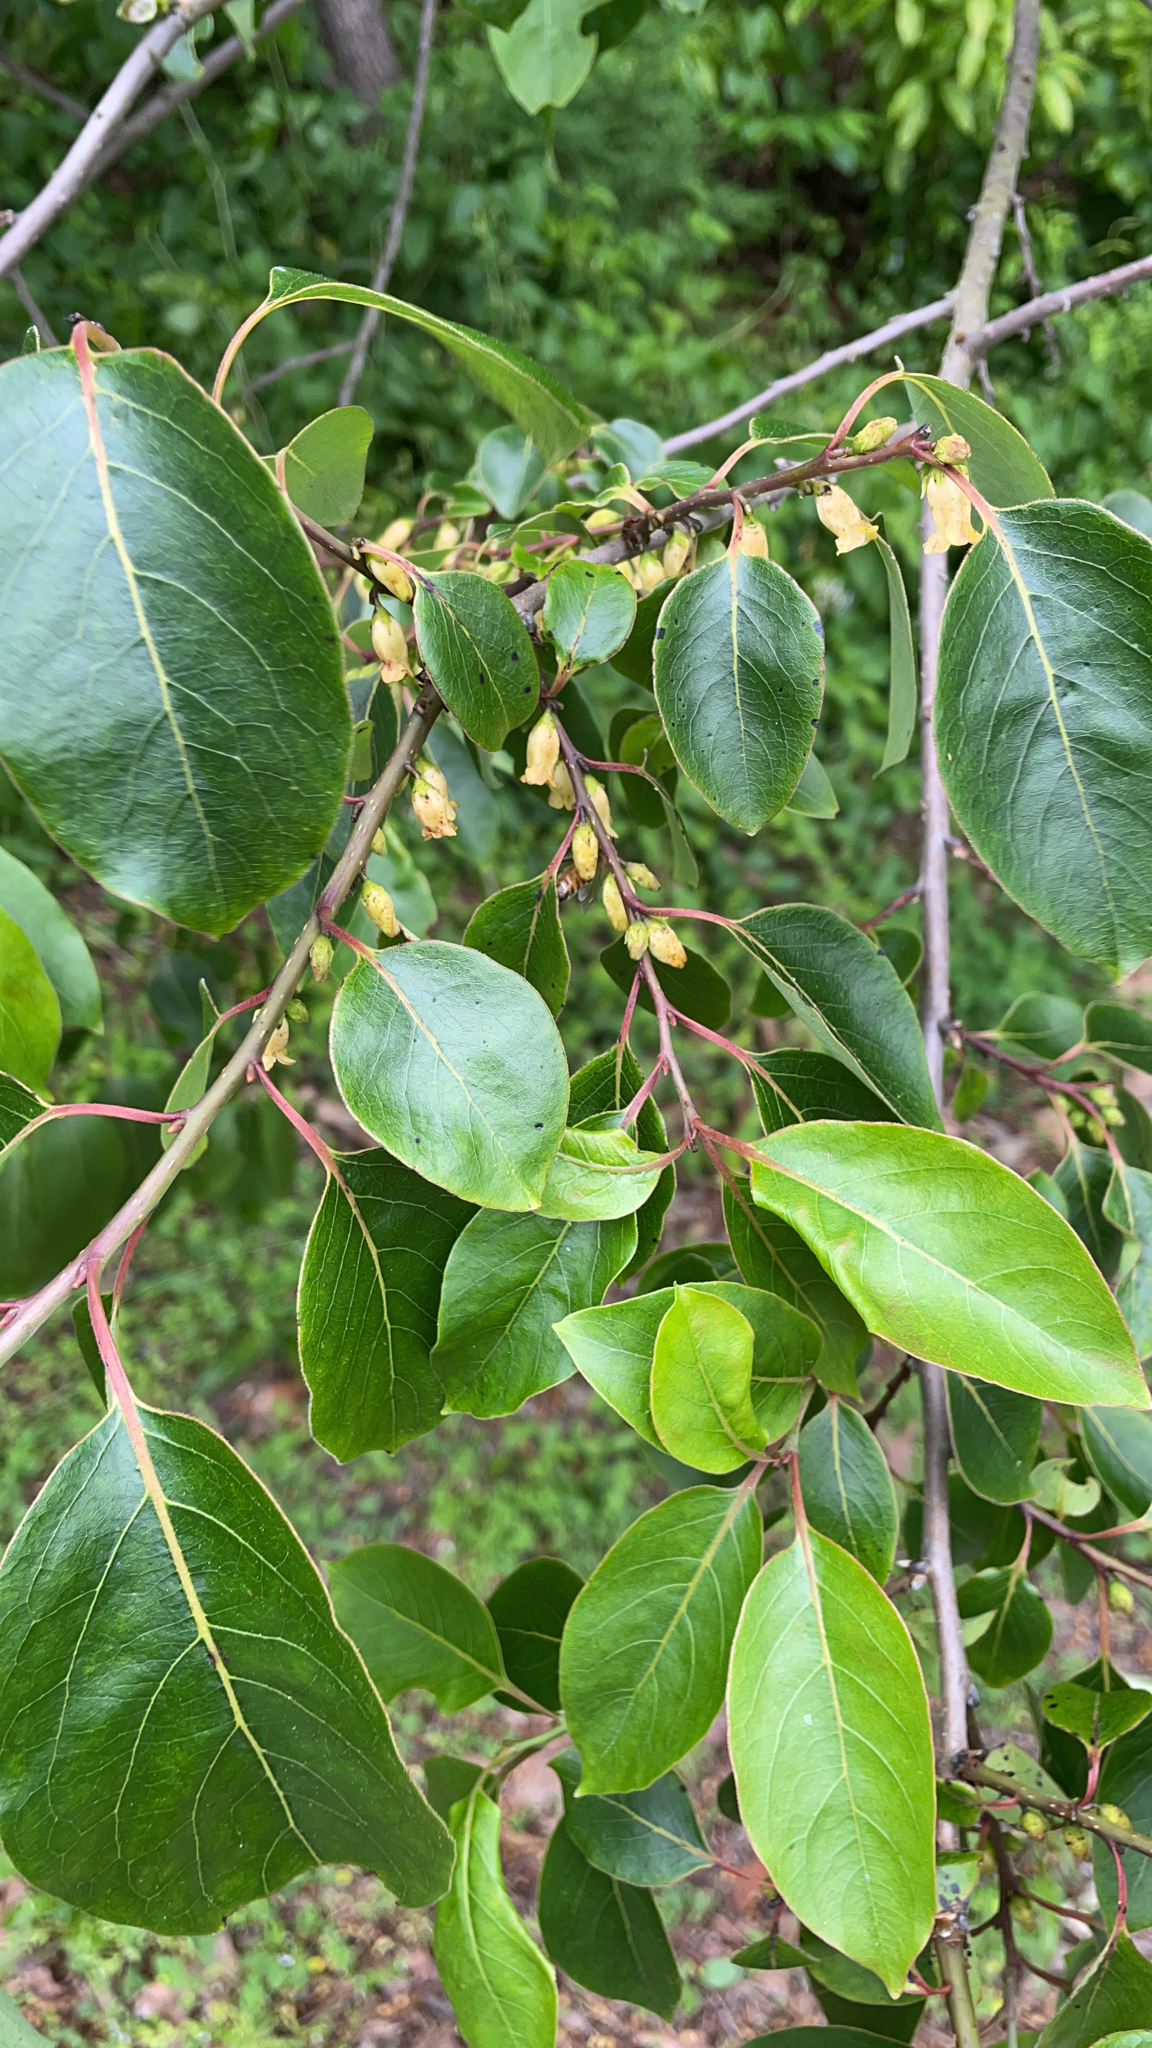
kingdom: Plantae
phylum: Tracheophyta
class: Magnoliopsida
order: Ericales
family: Ebenaceae
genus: Diospyros
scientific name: Diospyros virginiana
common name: Persimmon
